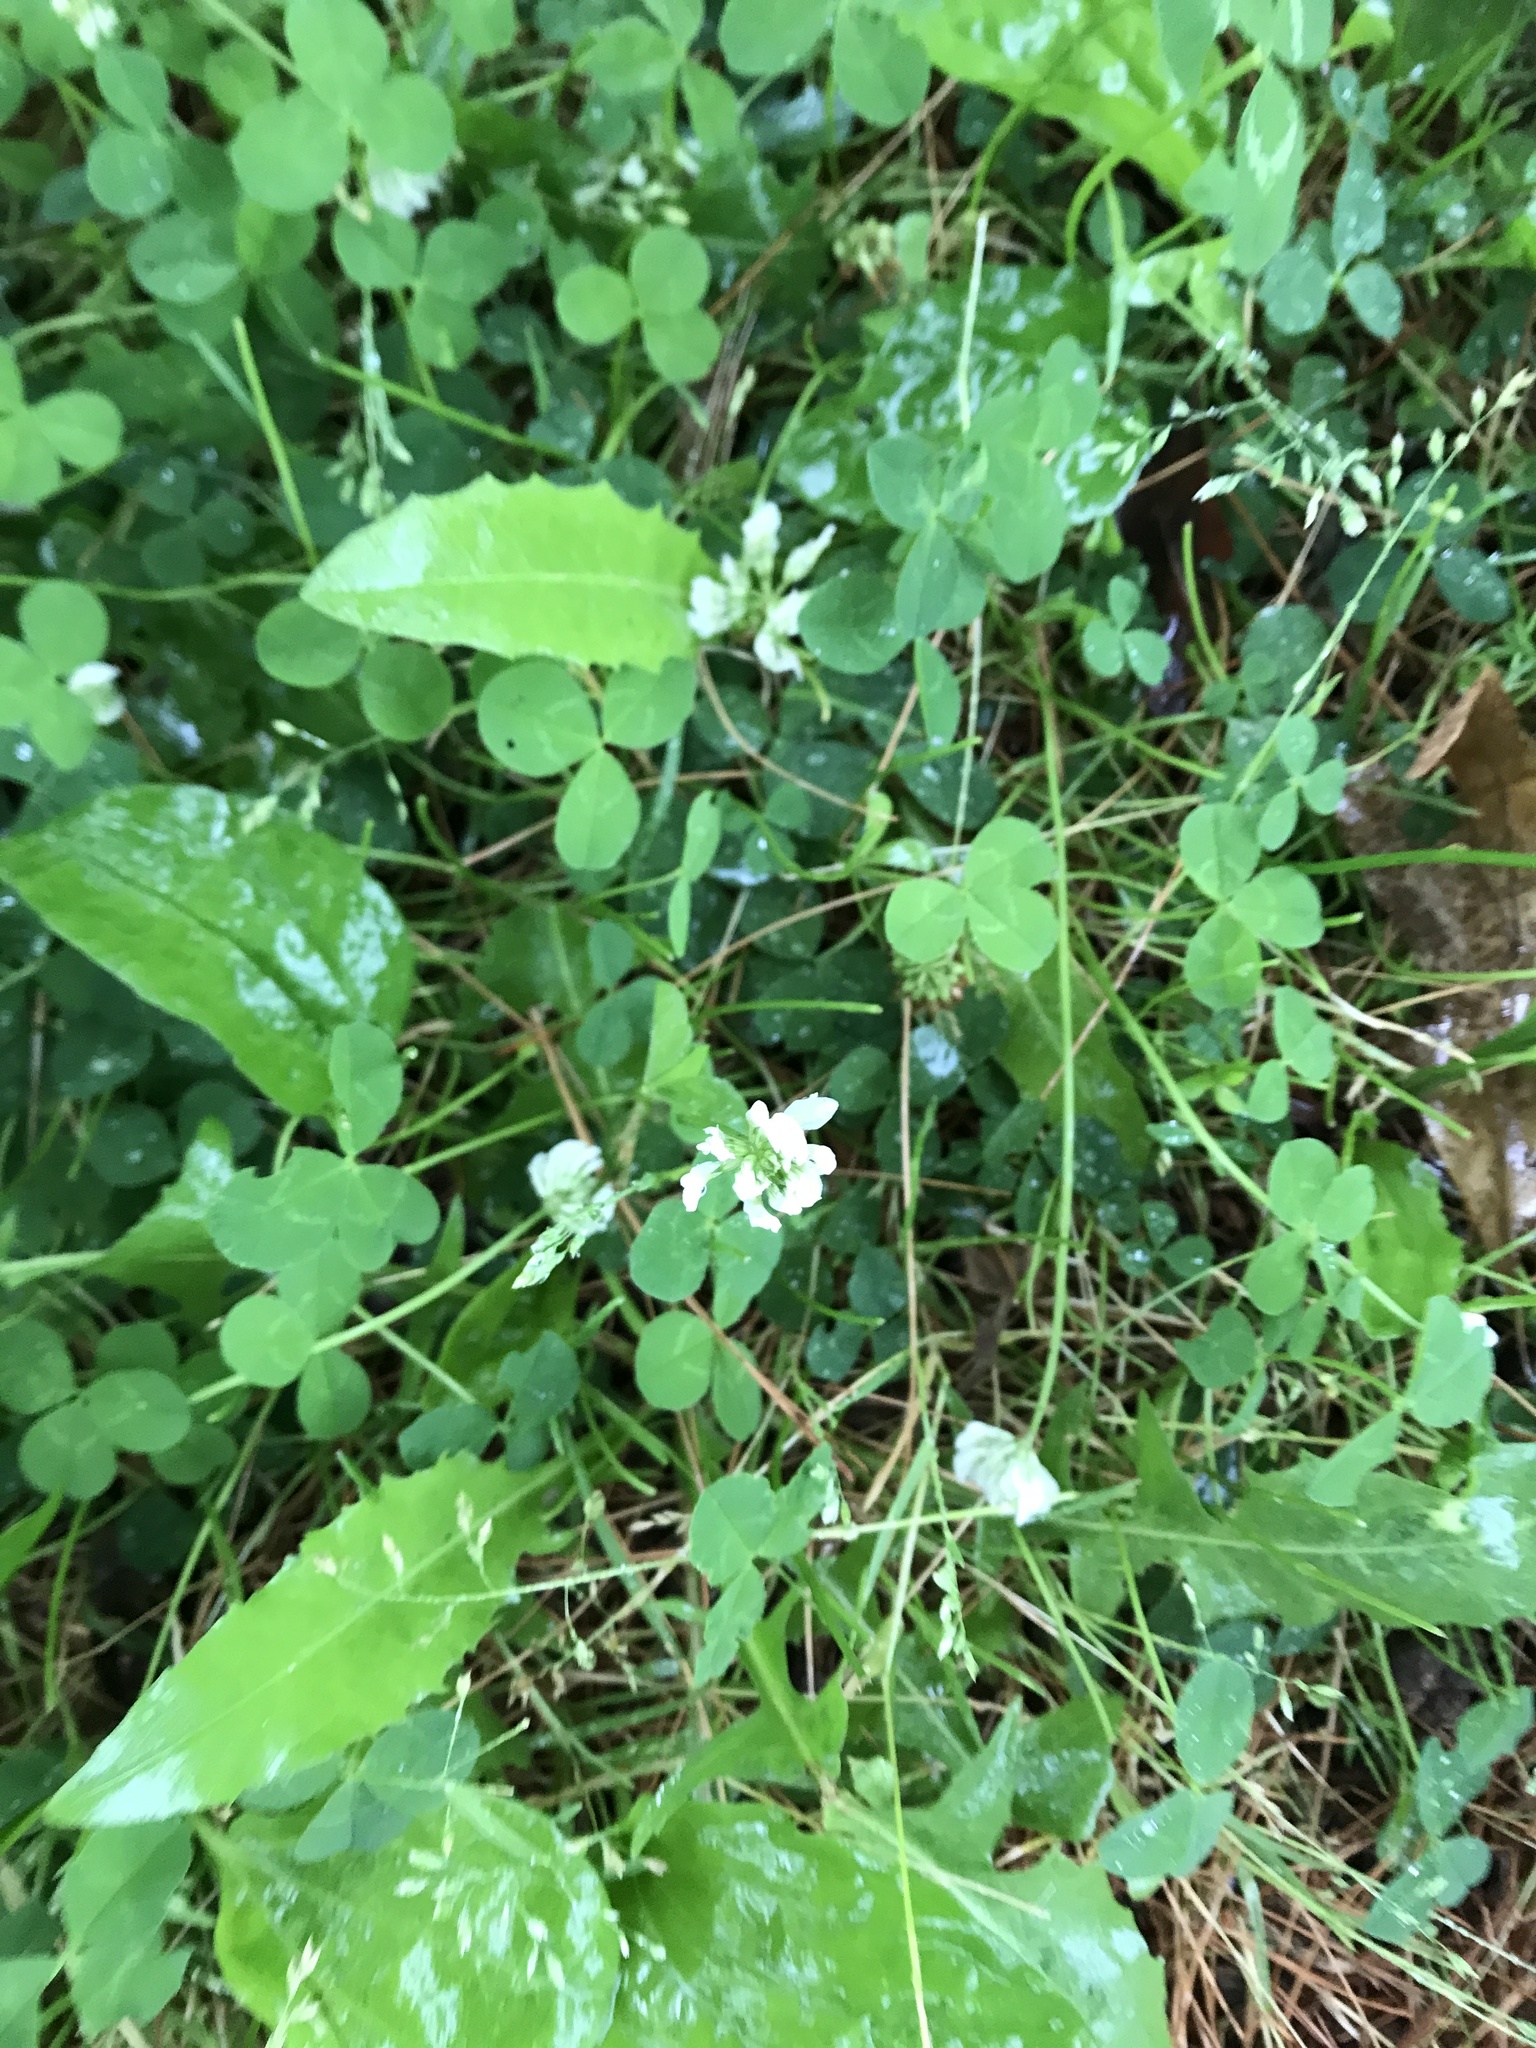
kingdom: Plantae
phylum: Tracheophyta
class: Magnoliopsida
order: Fabales
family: Fabaceae
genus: Trifolium
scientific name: Trifolium repens
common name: White clover
